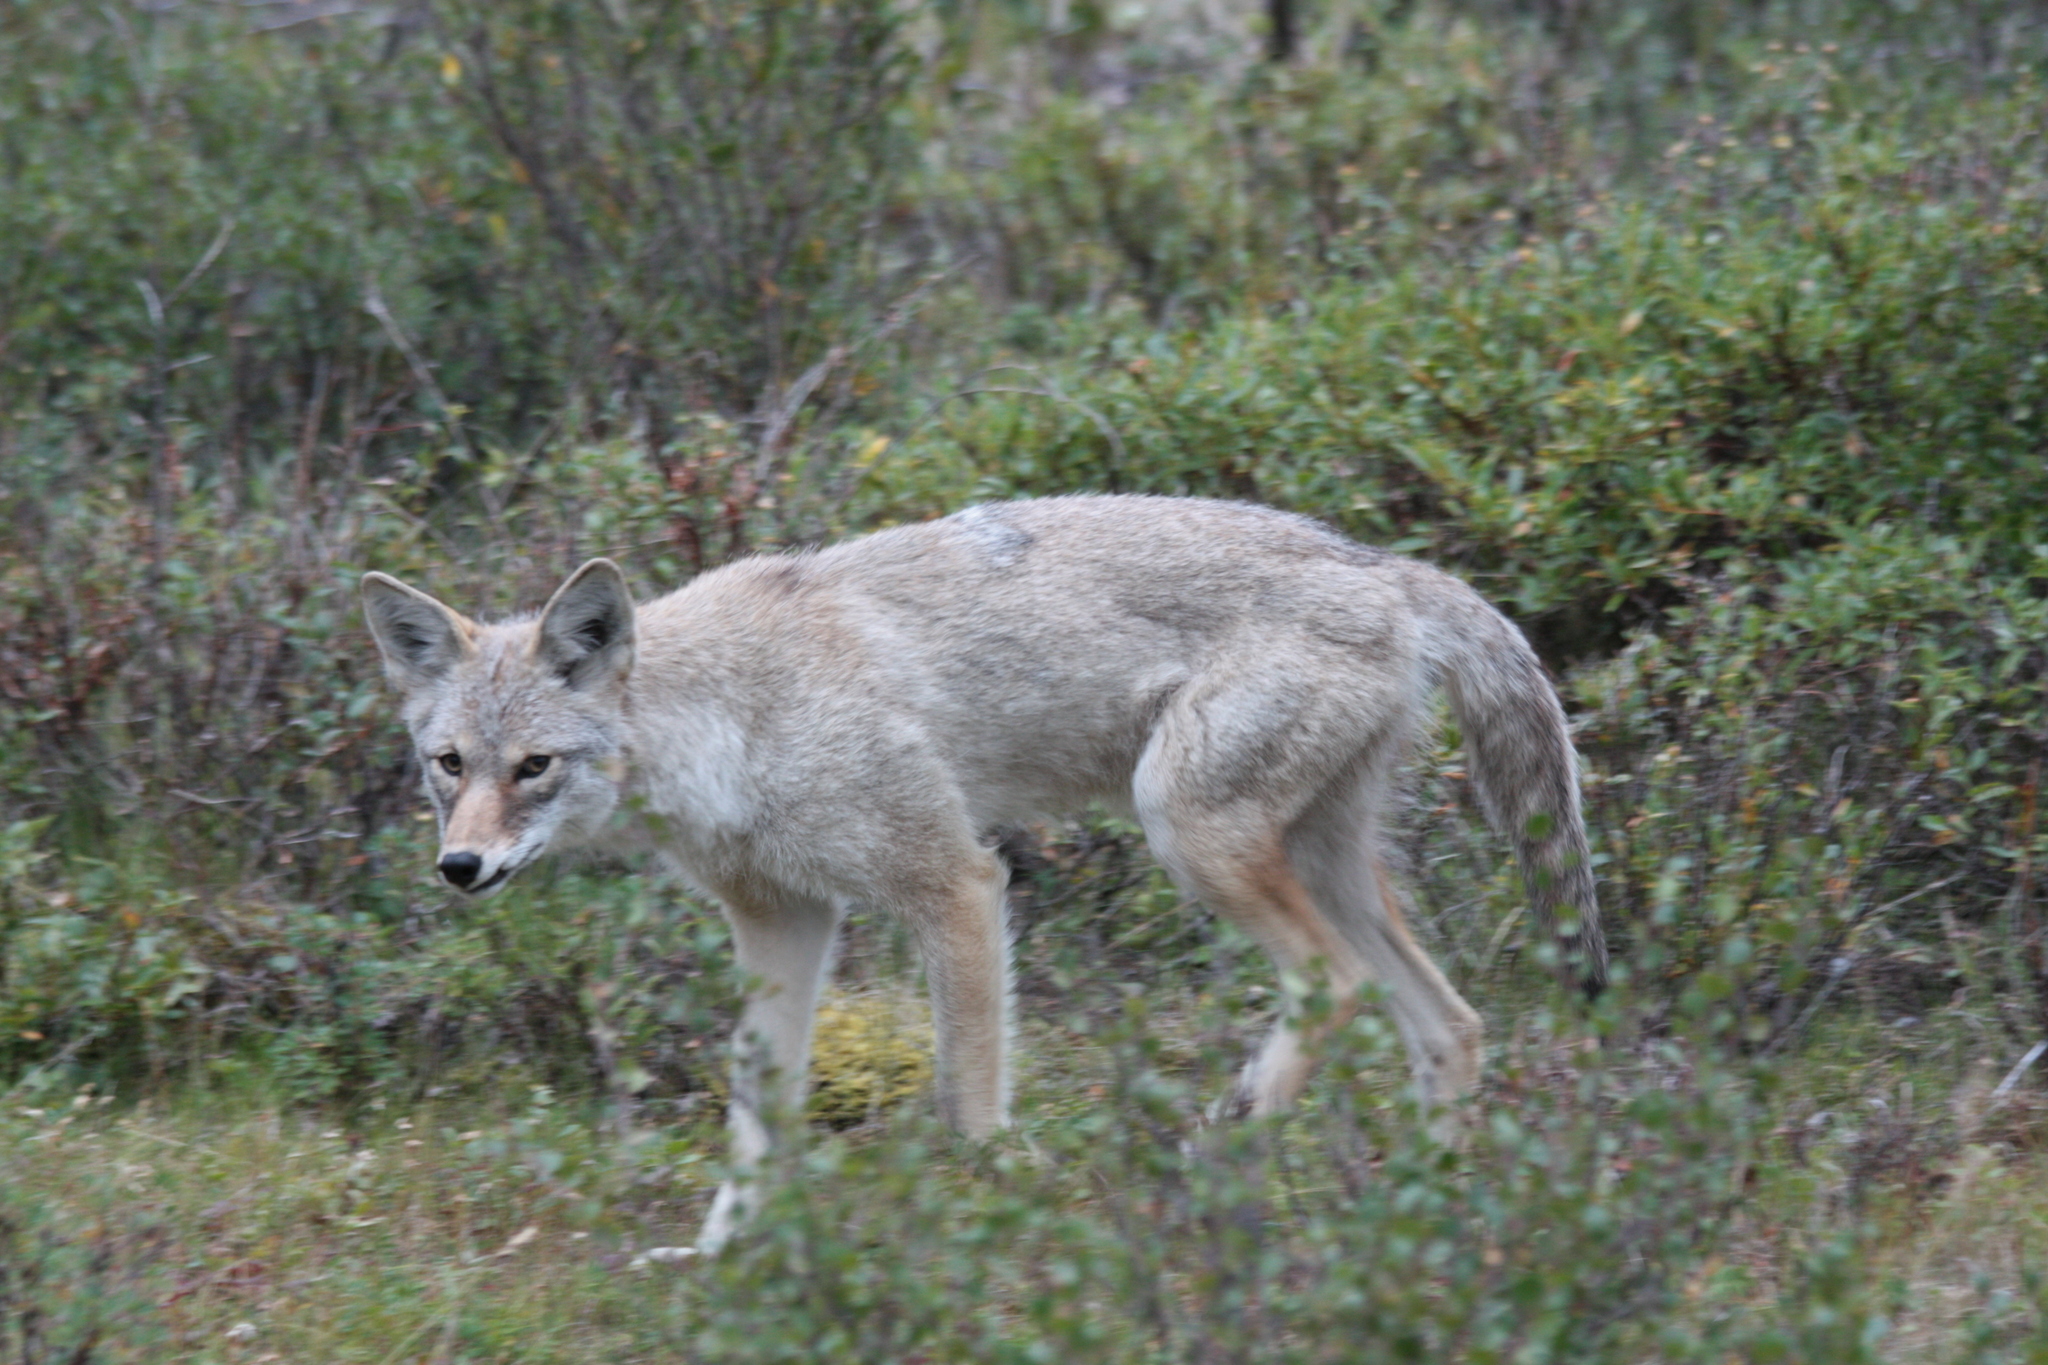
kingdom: Animalia
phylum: Chordata
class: Mammalia
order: Carnivora
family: Canidae
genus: Canis
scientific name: Canis latrans
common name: Coyote
